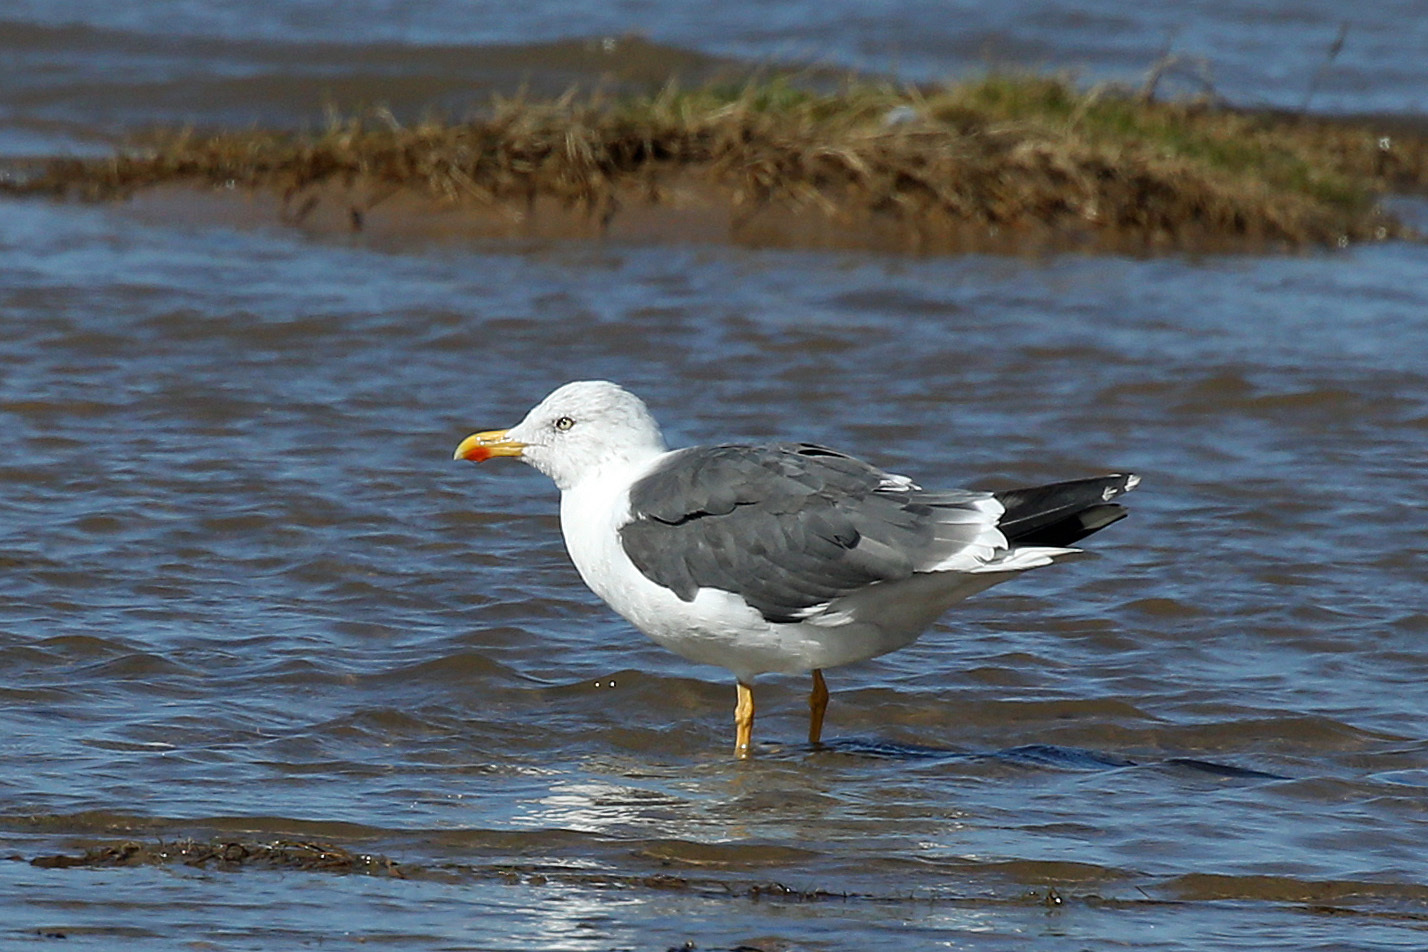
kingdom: Animalia
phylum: Chordata
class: Aves
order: Charadriiformes
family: Laridae
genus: Larus
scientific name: Larus fuscus
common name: Lesser black-backed gull
